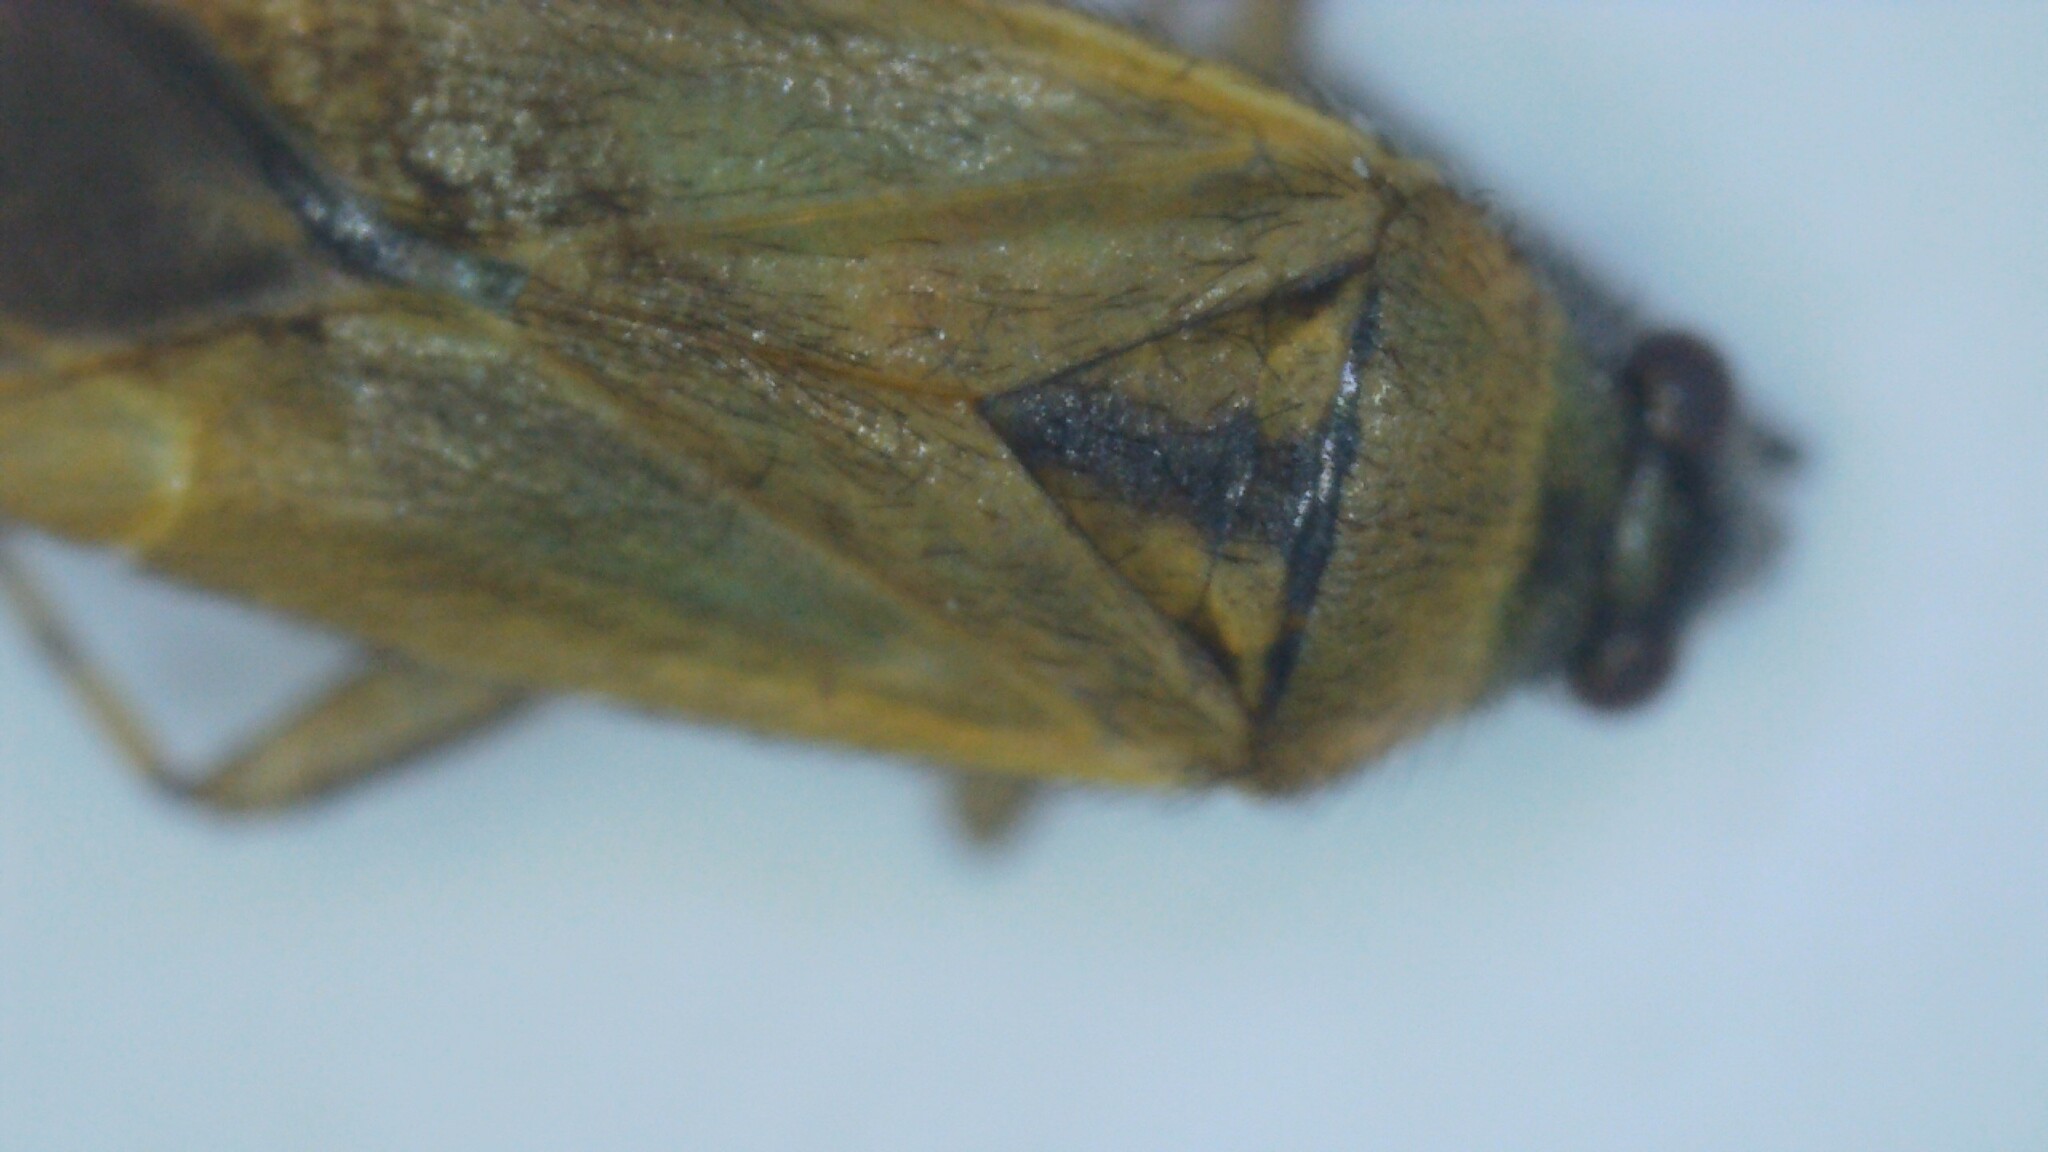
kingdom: Animalia
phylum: Arthropoda
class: Insecta
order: Hemiptera
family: Miridae
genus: Plagiognathus
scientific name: Plagiognathus arbustorum
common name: Plant bug
